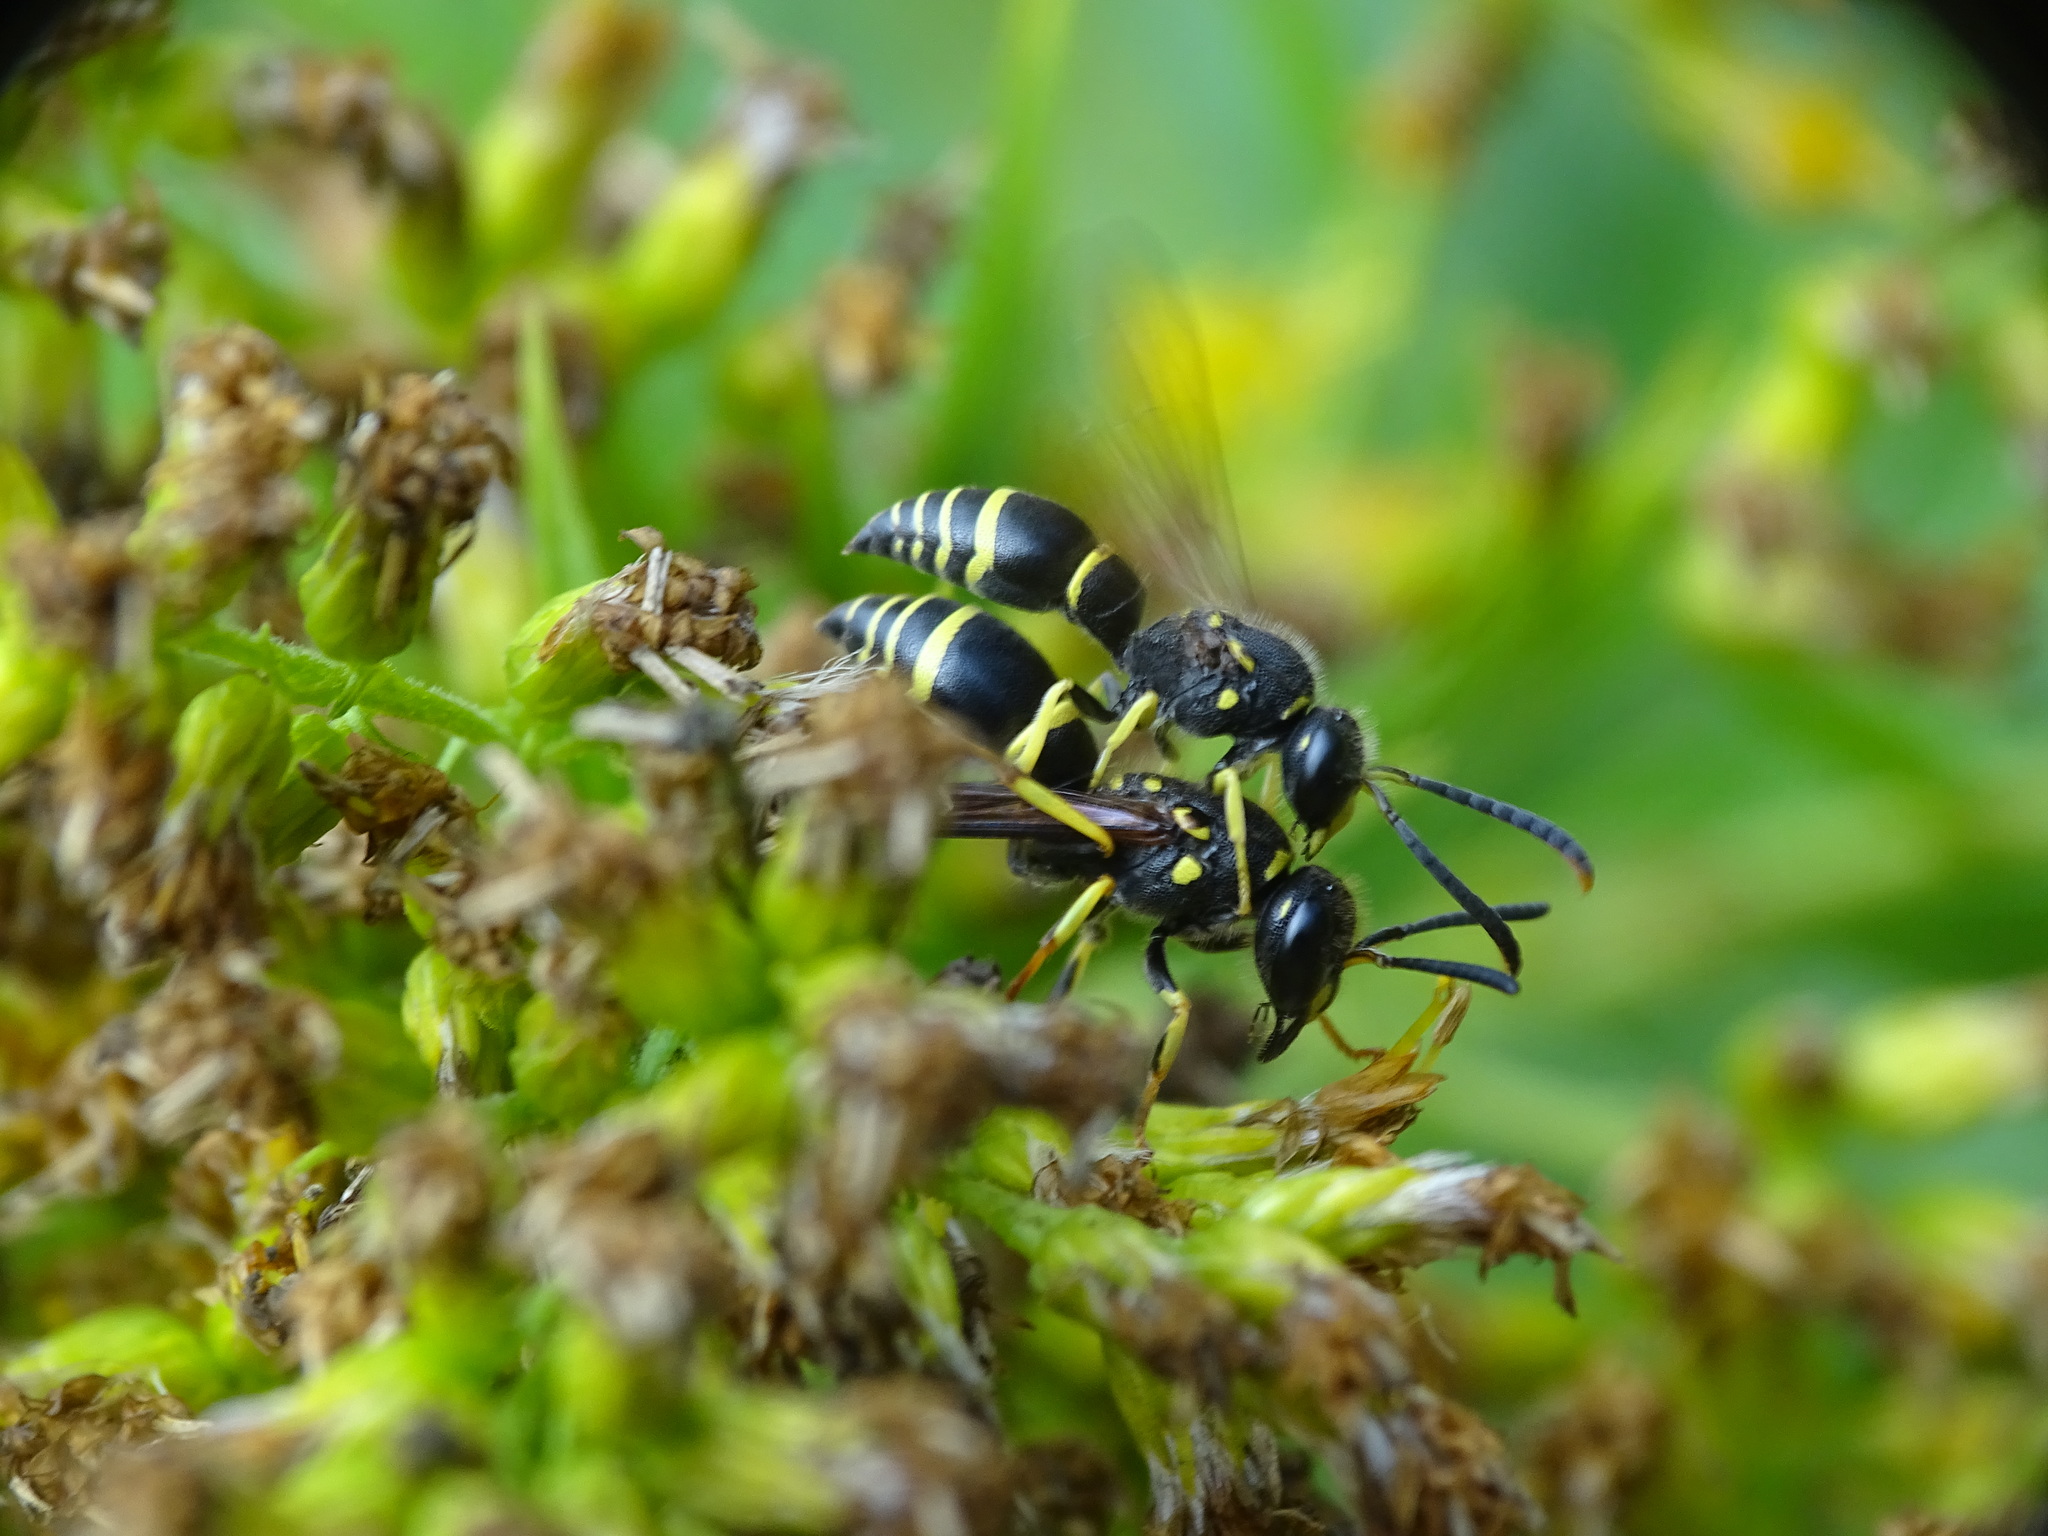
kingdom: Animalia
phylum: Arthropoda
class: Insecta
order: Hymenoptera
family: Vespidae
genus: Ancistrocerus
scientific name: Ancistrocerus adiabatus
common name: Bramble mason wasp
